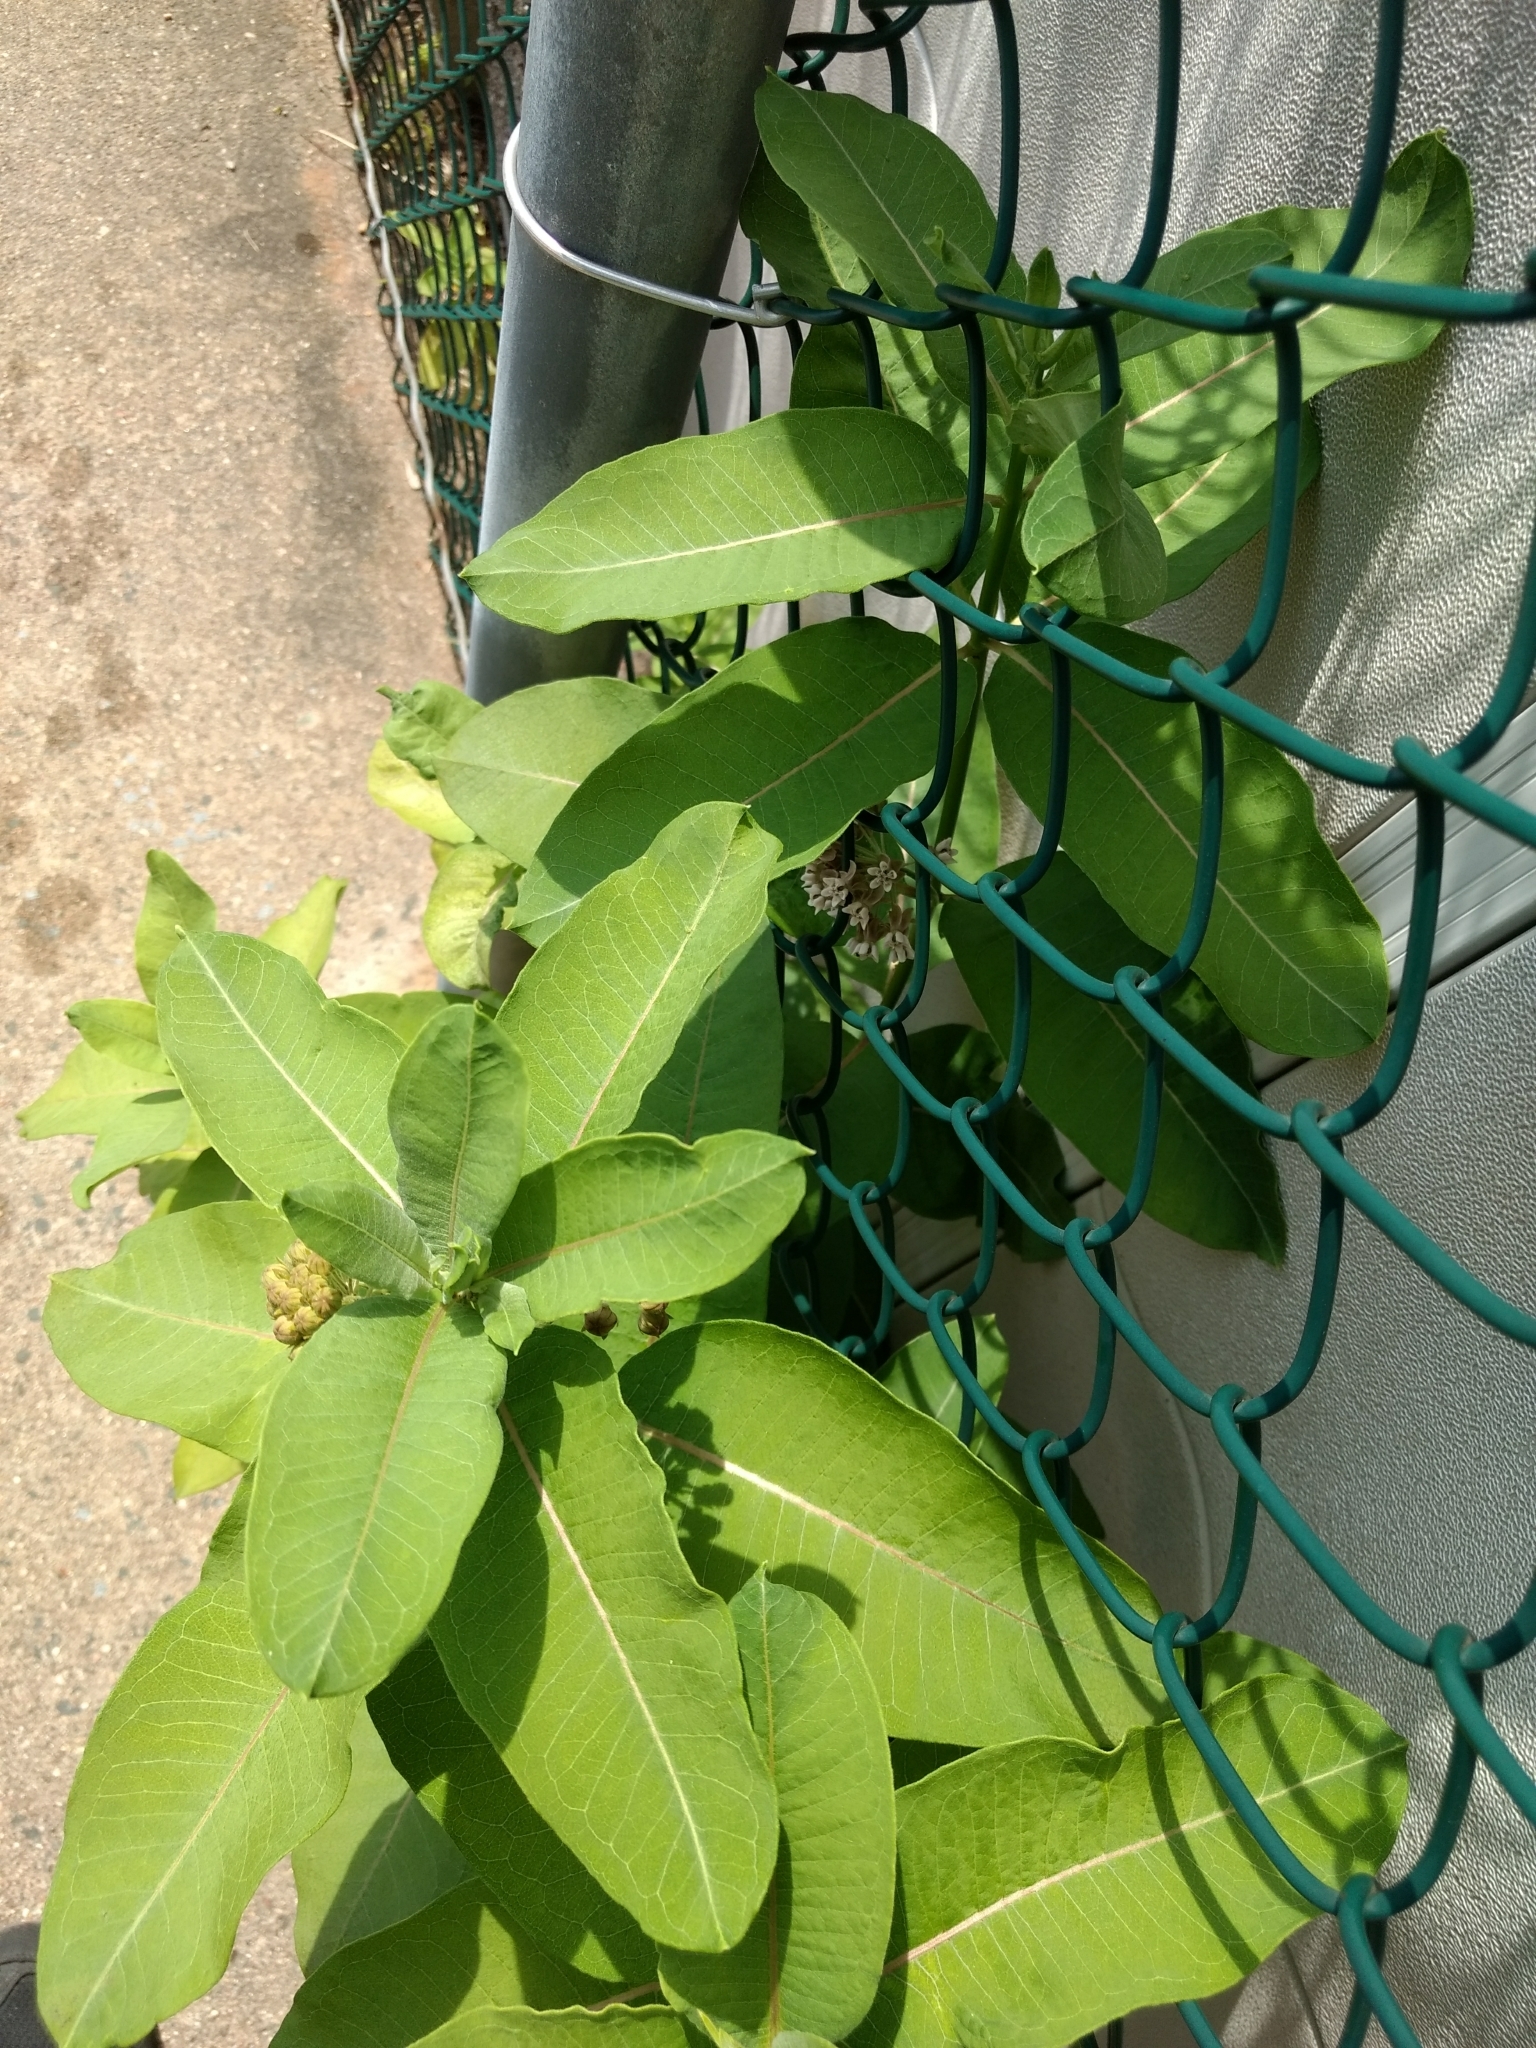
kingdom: Plantae
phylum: Tracheophyta
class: Magnoliopsida
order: Gentianales
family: Apocynaceae
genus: Asclepias
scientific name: Asclepias syriaca
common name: Common milkweed
